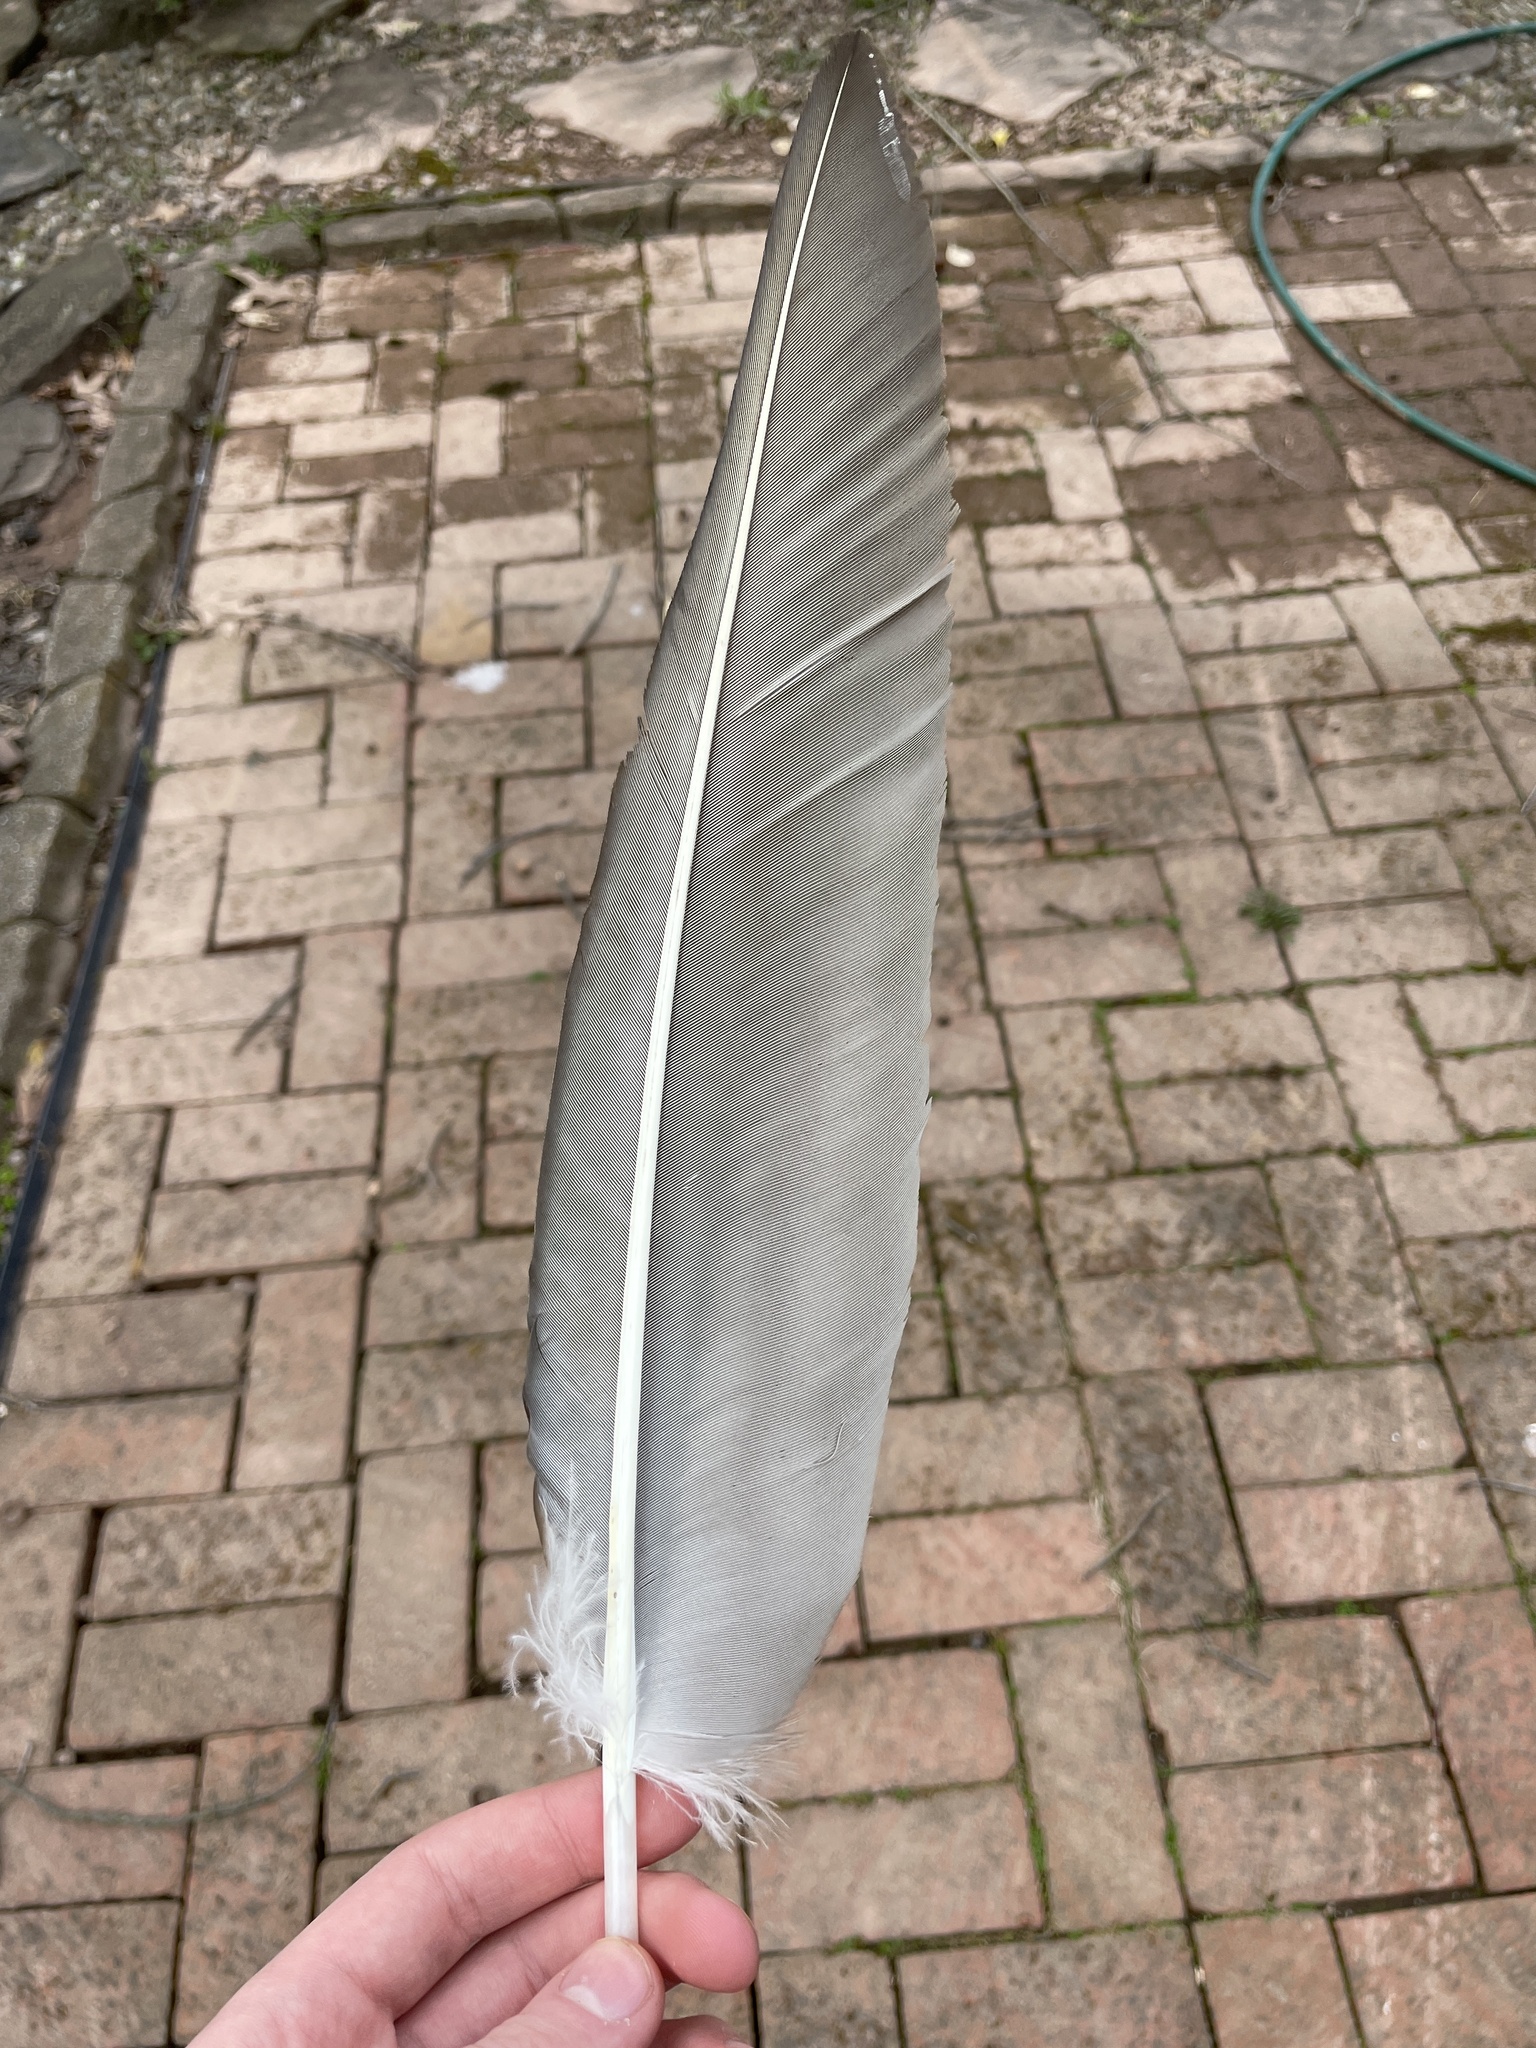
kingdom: Animalia
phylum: Chordata
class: Aves
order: Accipitriformes
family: Cathartidae
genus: Cathartes
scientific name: Cathartes aura
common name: Turkey vulture
